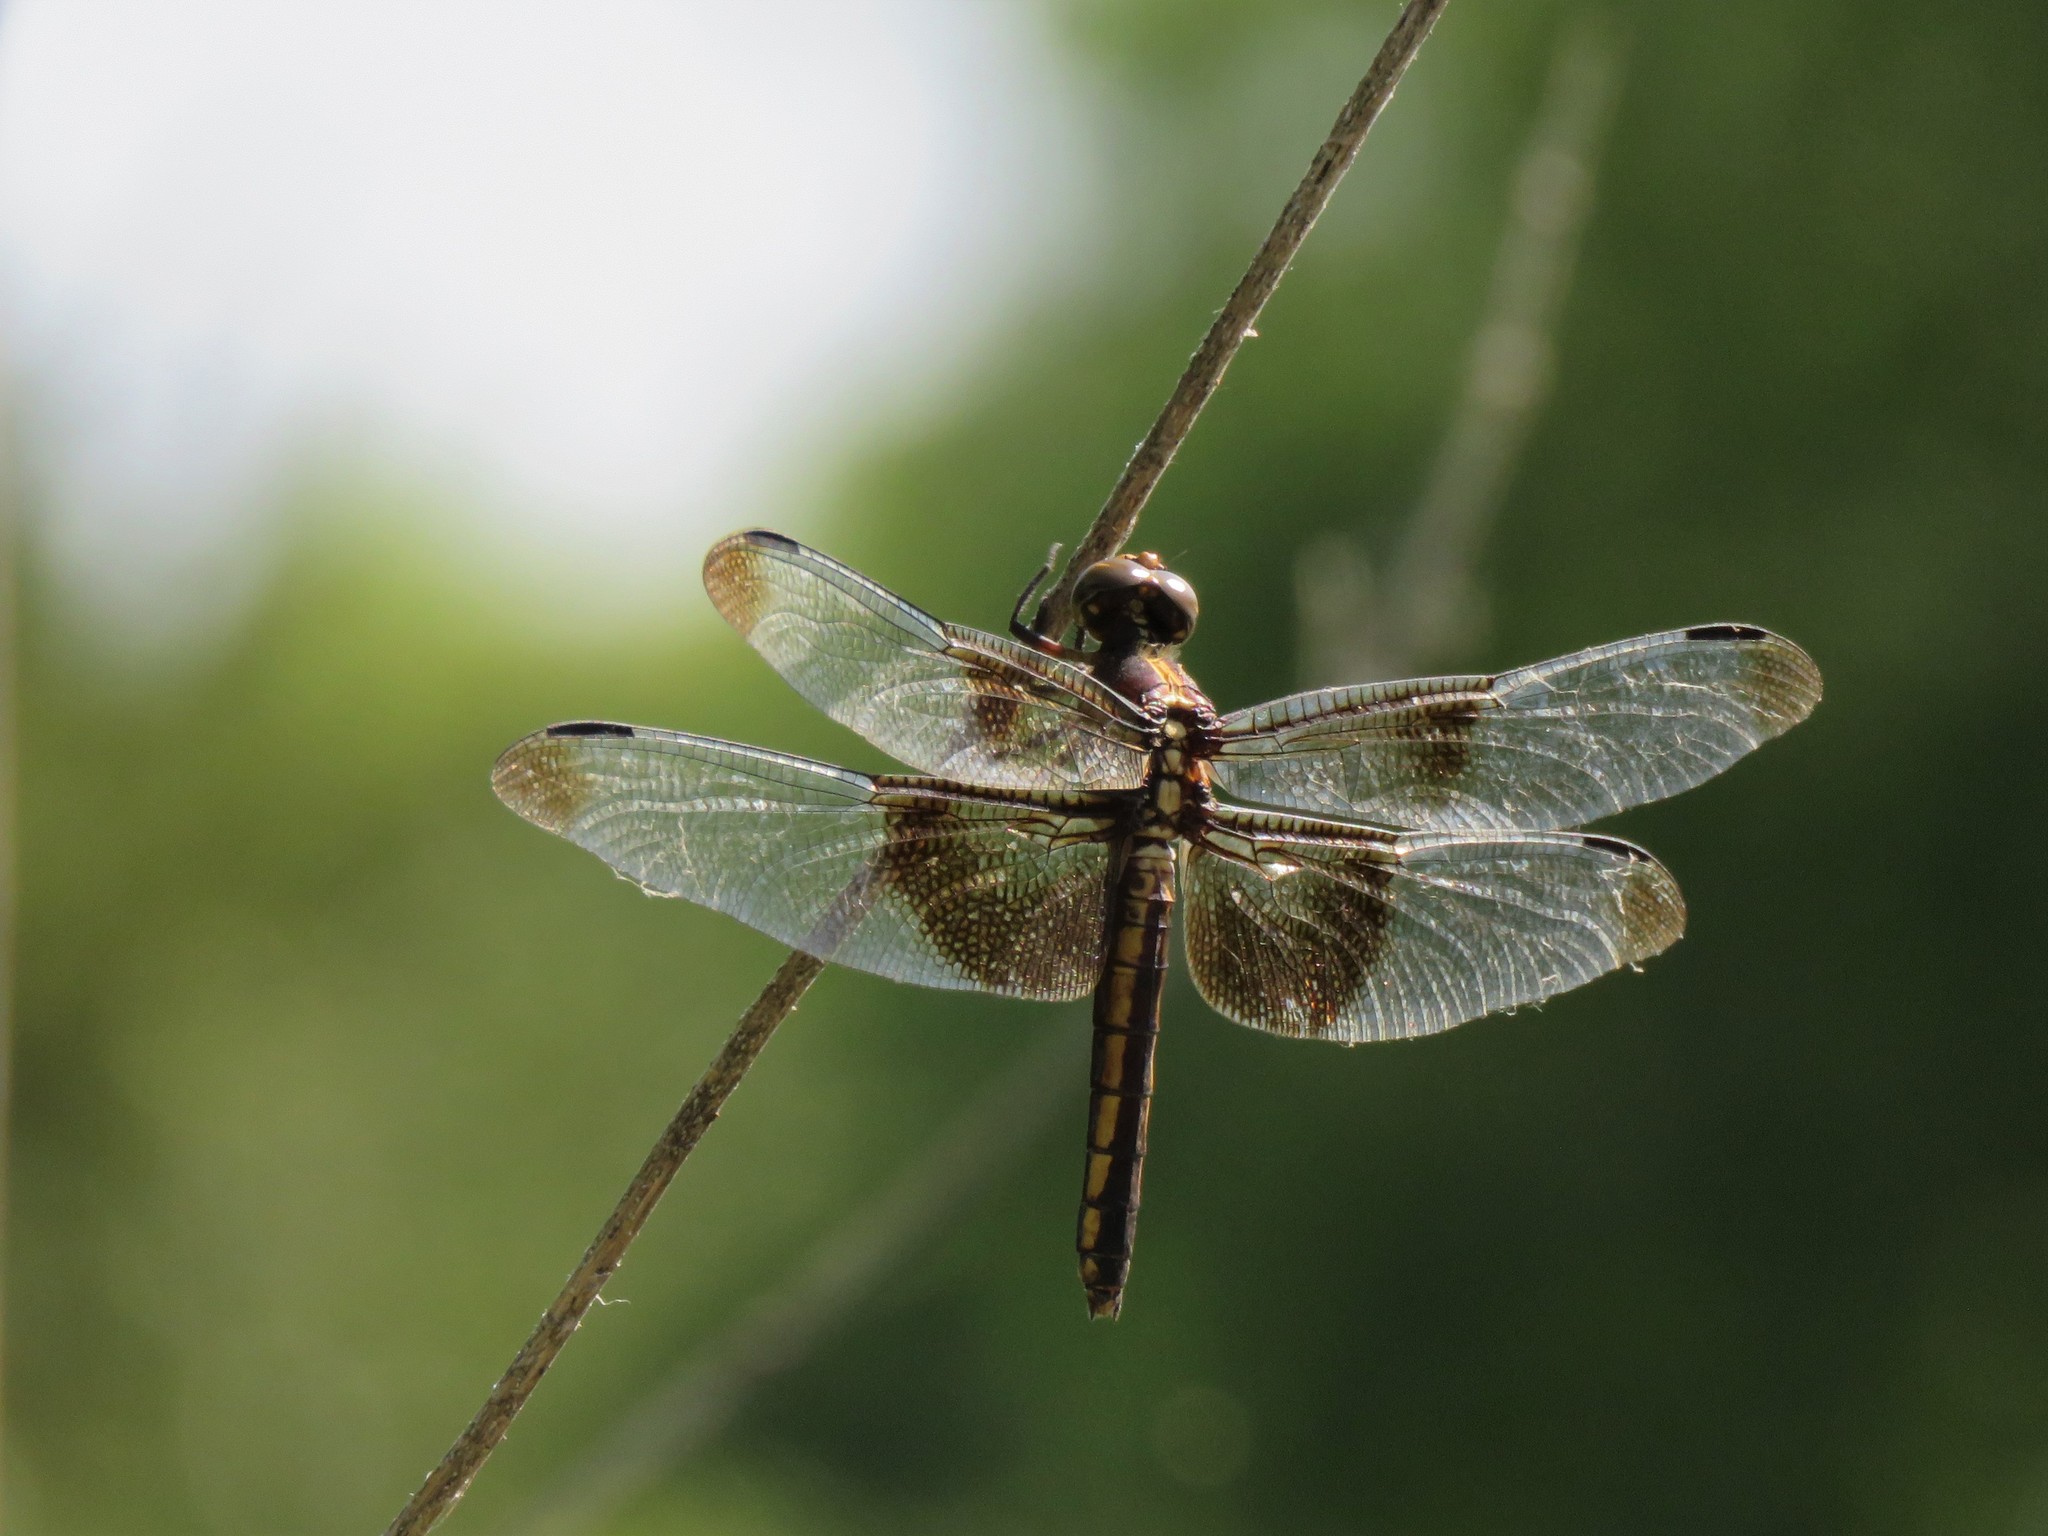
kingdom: Animalia
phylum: Arthropoda
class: Insecta
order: Odonata
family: Libellulidae
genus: Libellula
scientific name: Libellula luctuosa
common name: Widow skimmer
